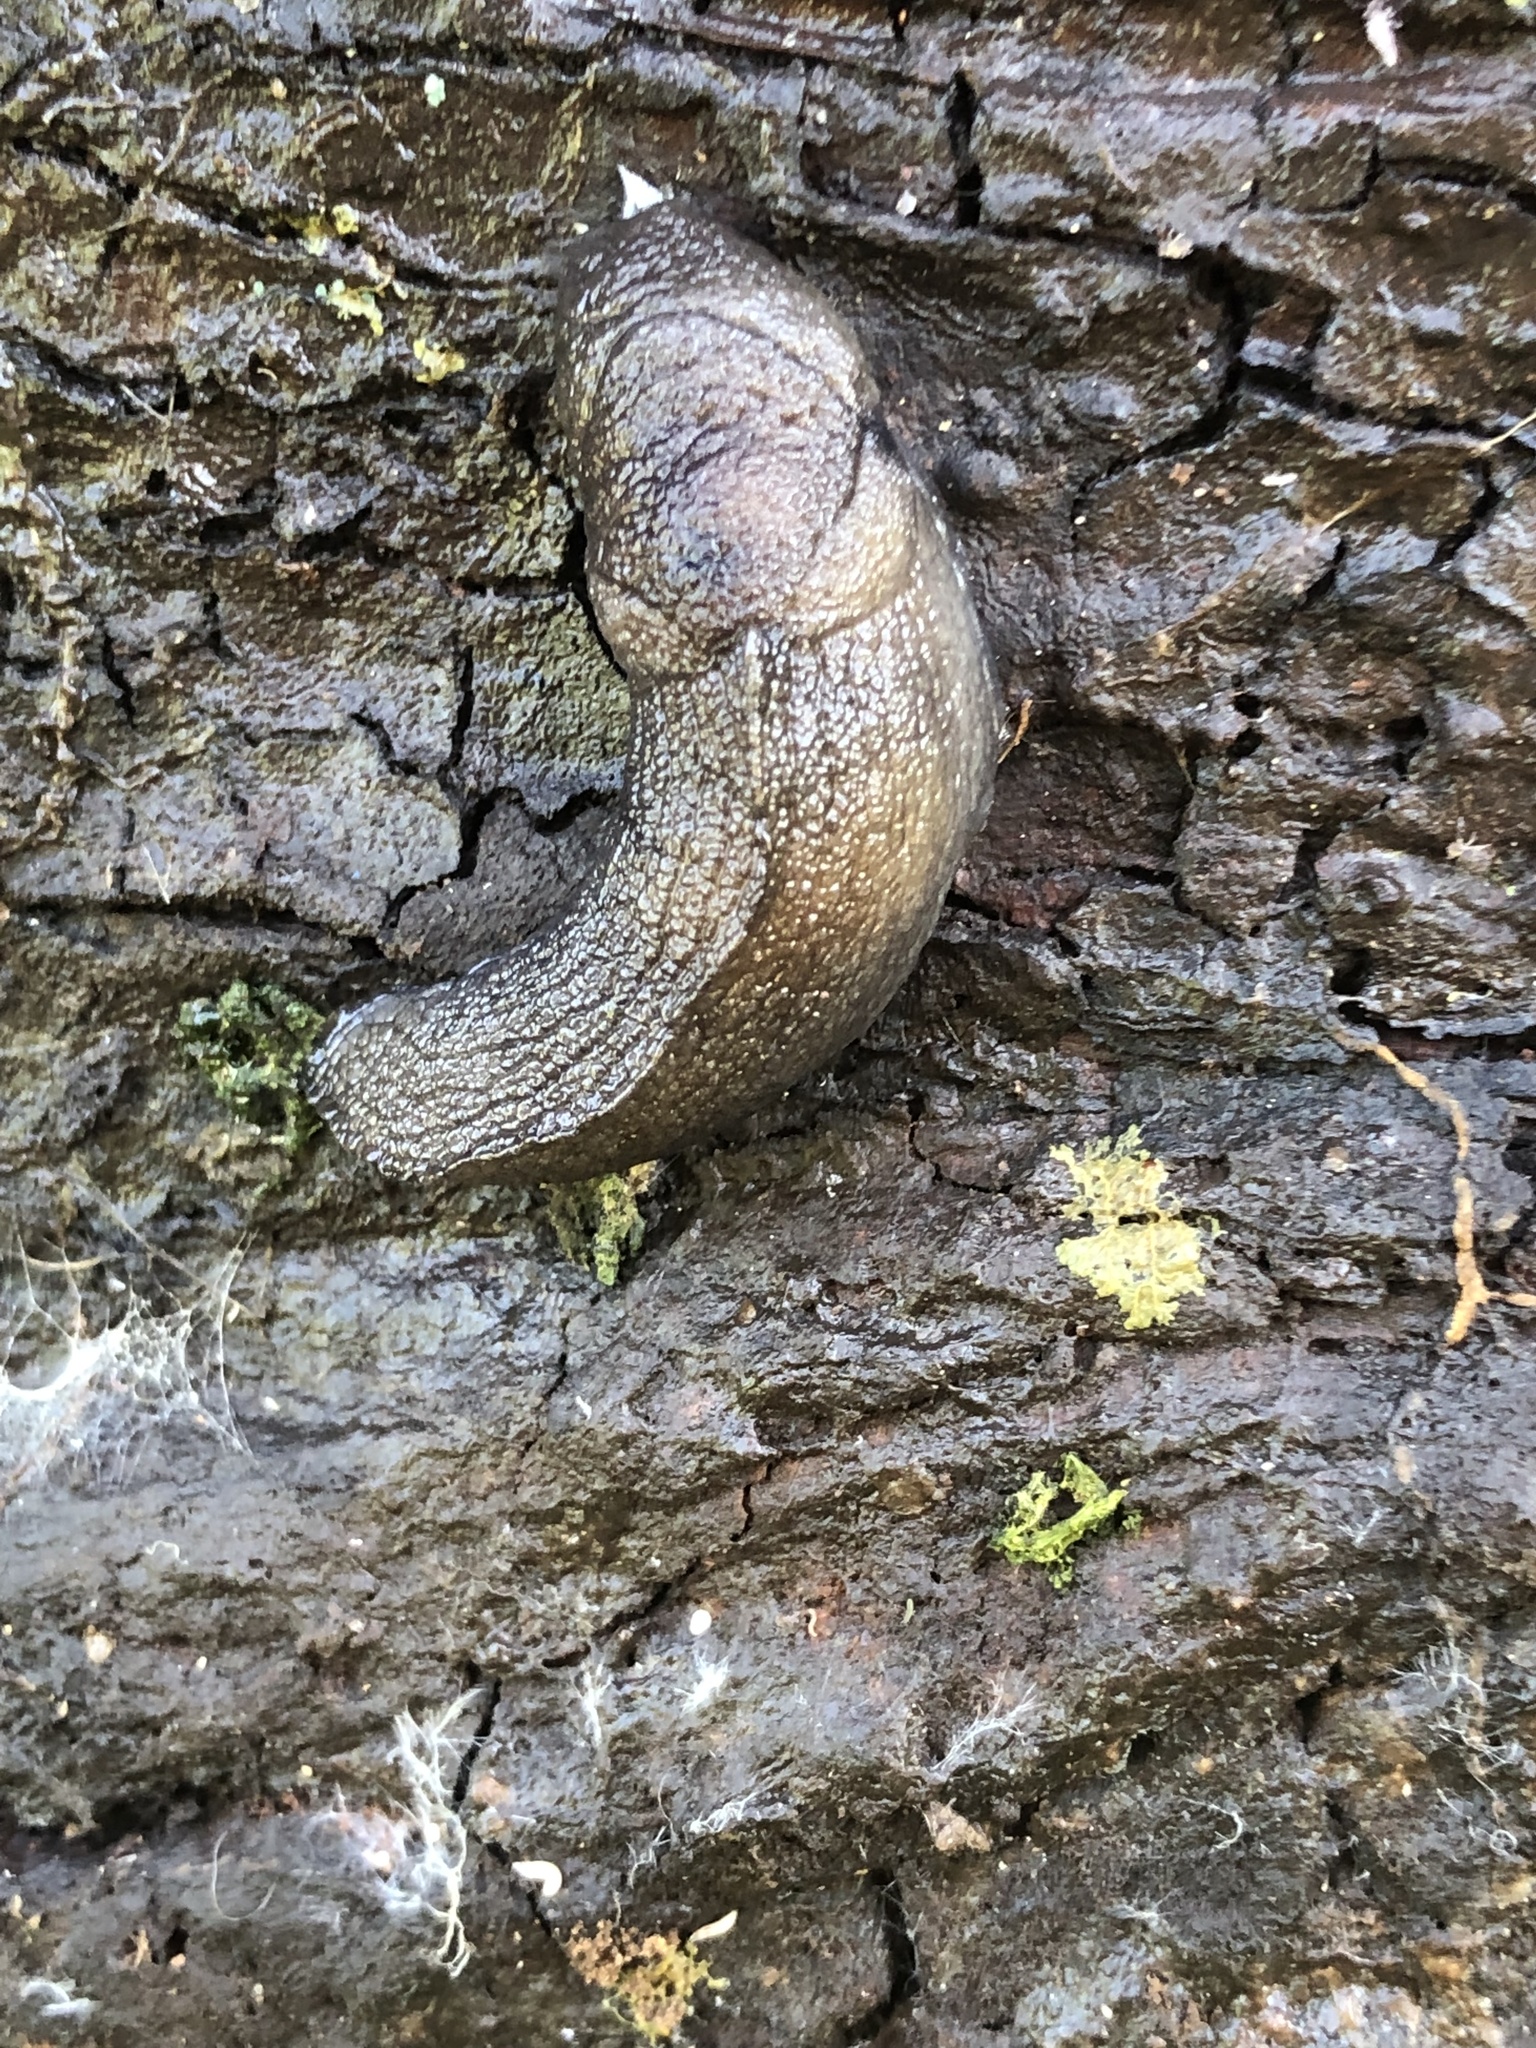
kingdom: Animalia
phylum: Mollusca
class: Gastropoda
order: Stylommatophora
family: Milacidae
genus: Milax
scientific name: Milax gagates
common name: Greenhouse slug
